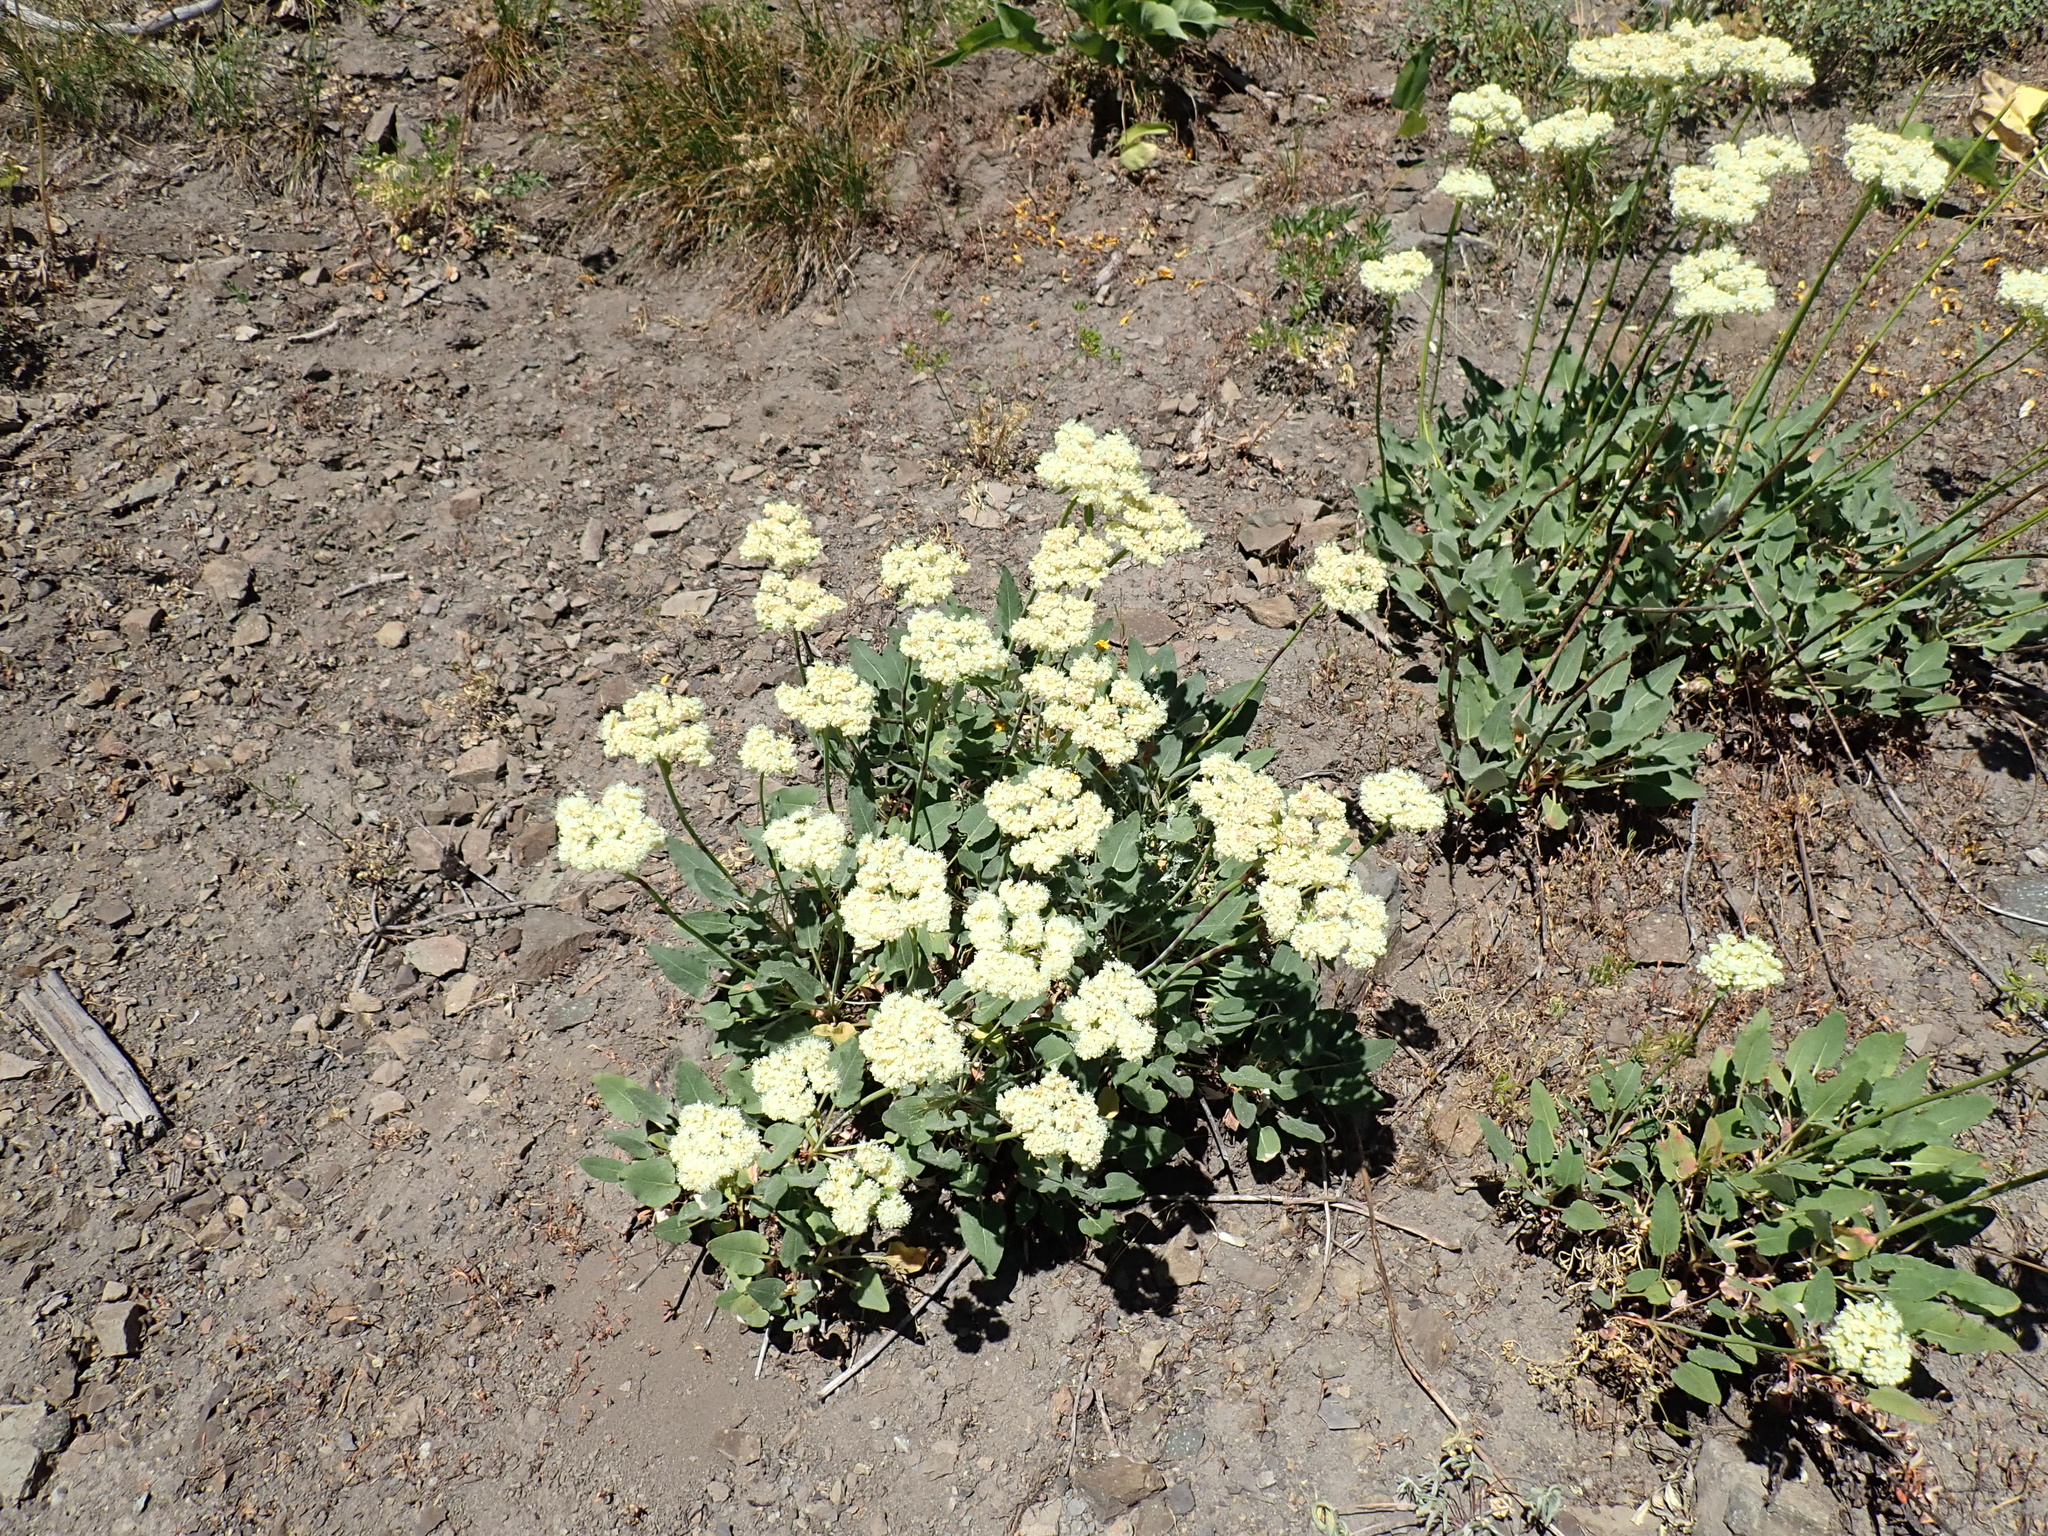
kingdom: Plantae
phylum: Tracheophyta
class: Magnoliopsida
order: Caryophyllales
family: Polygonaceae
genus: Eriogonum
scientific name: Eriogonum compositum
